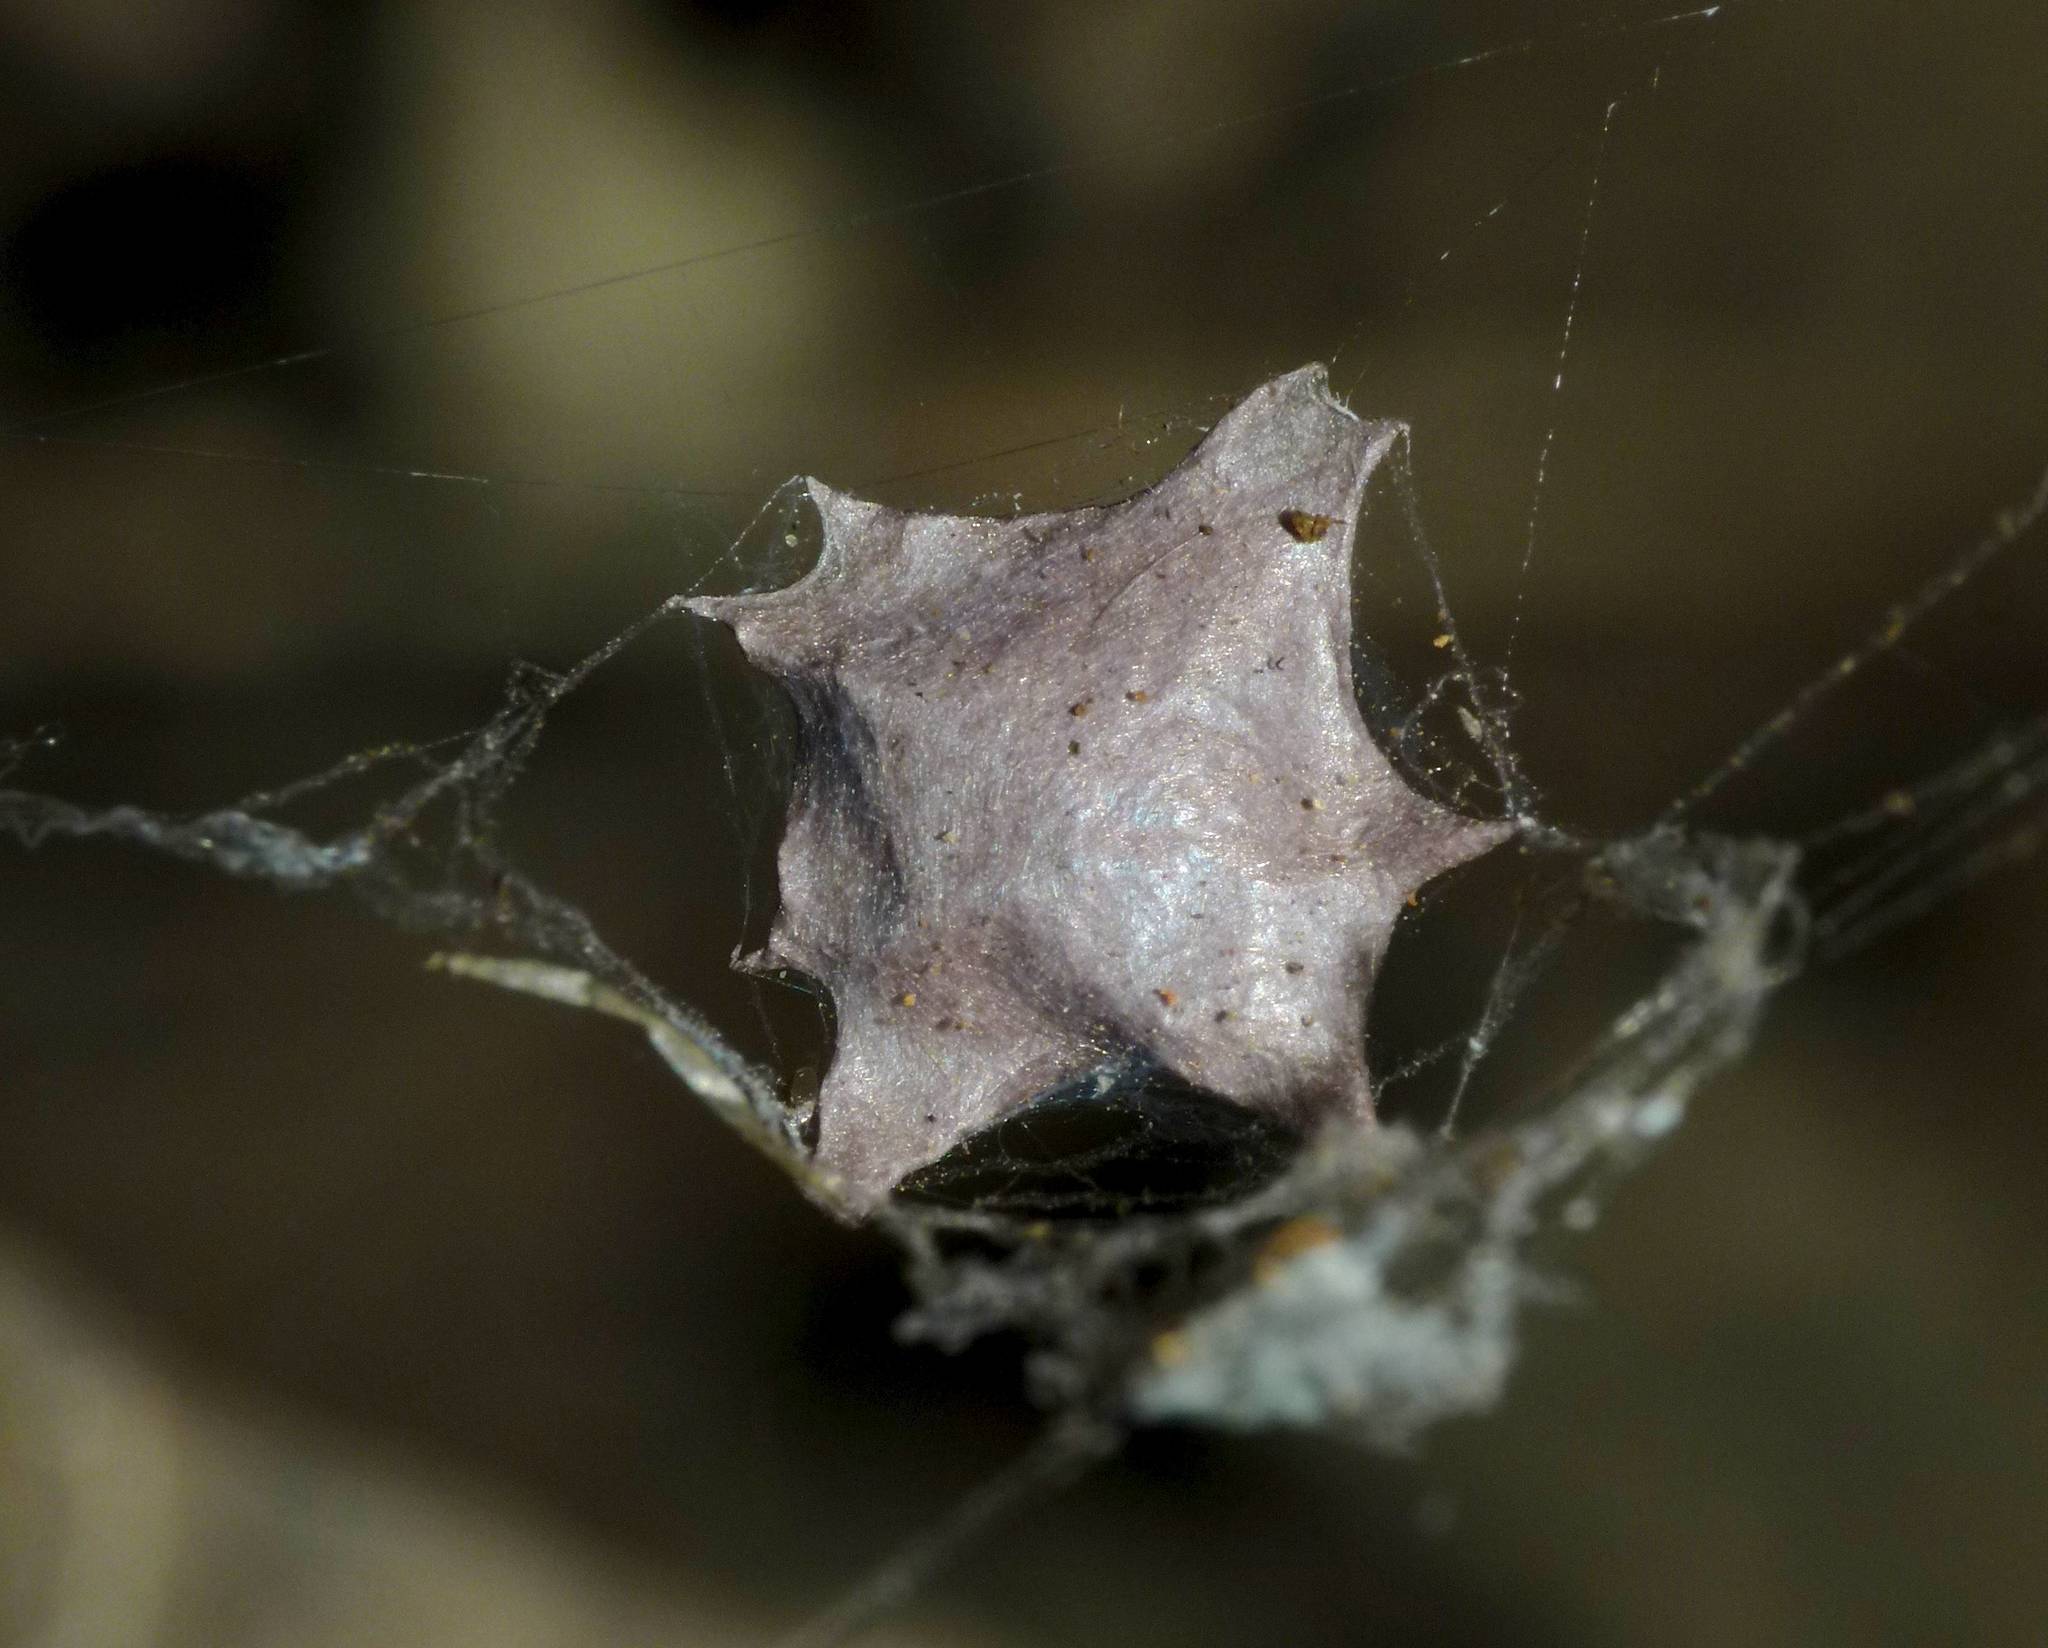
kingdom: Animalia
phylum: Arthropoda
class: Arachnida
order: Araneae
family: Uloboridae
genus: Zosis
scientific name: Zosis geniculata
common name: Hackled orb weavers
